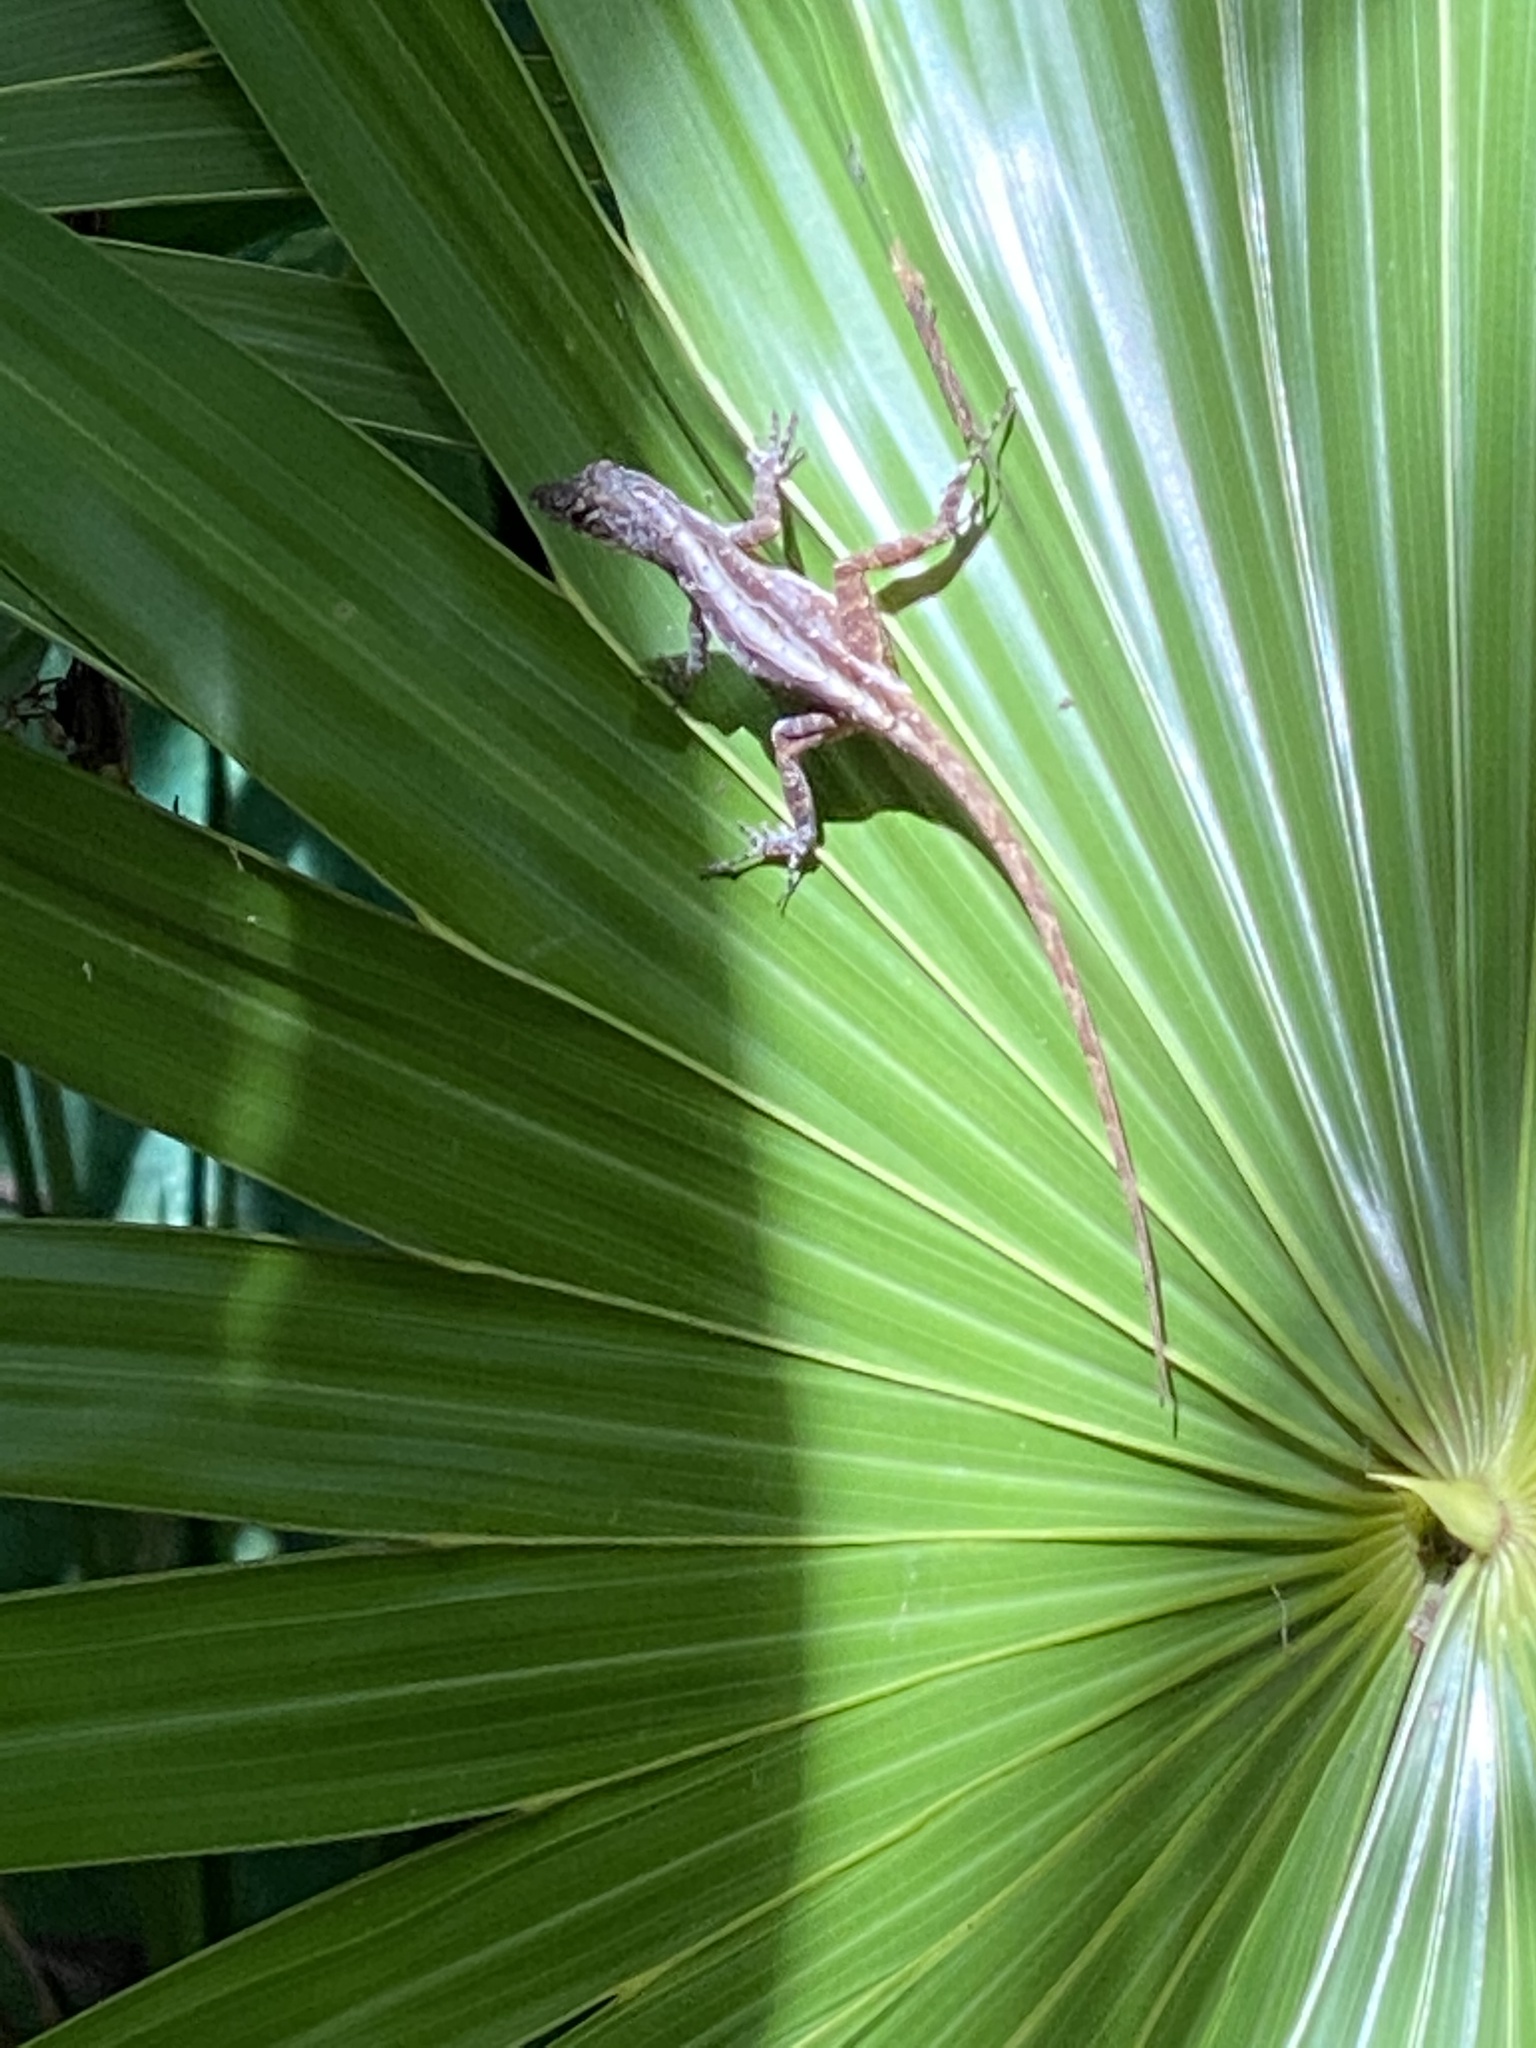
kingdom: Animalia
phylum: Chordata
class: Squamata
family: Dactyloidae
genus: Anolis
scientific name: Anolis sagrei
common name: Brown anole
